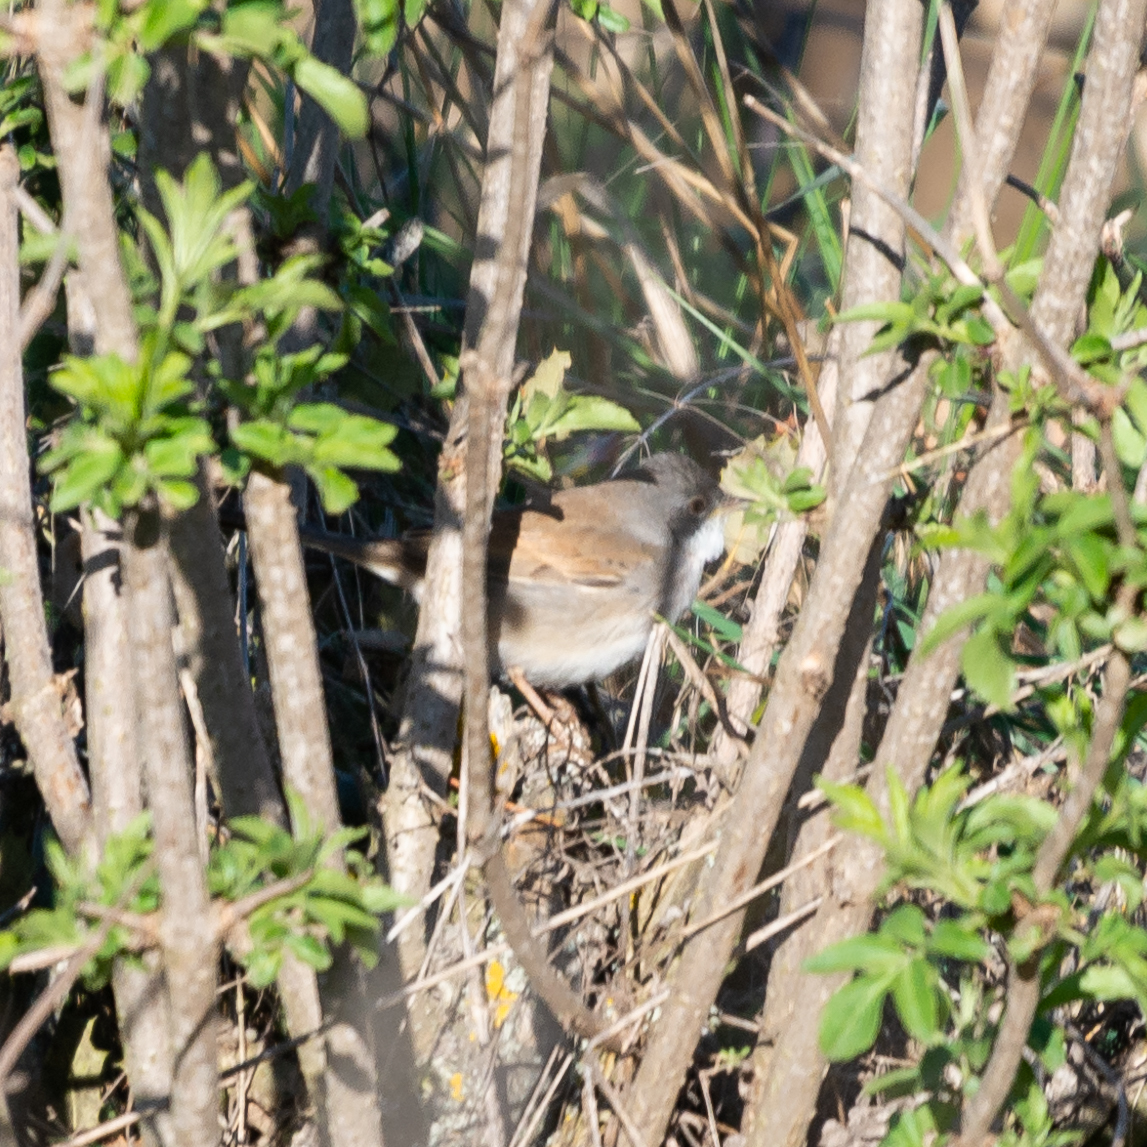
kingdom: Animalia
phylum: Chordata
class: Aves
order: Passeriformes
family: Sylviidae
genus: Sylvia
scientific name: Sylvia communis
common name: Common whitethroat
